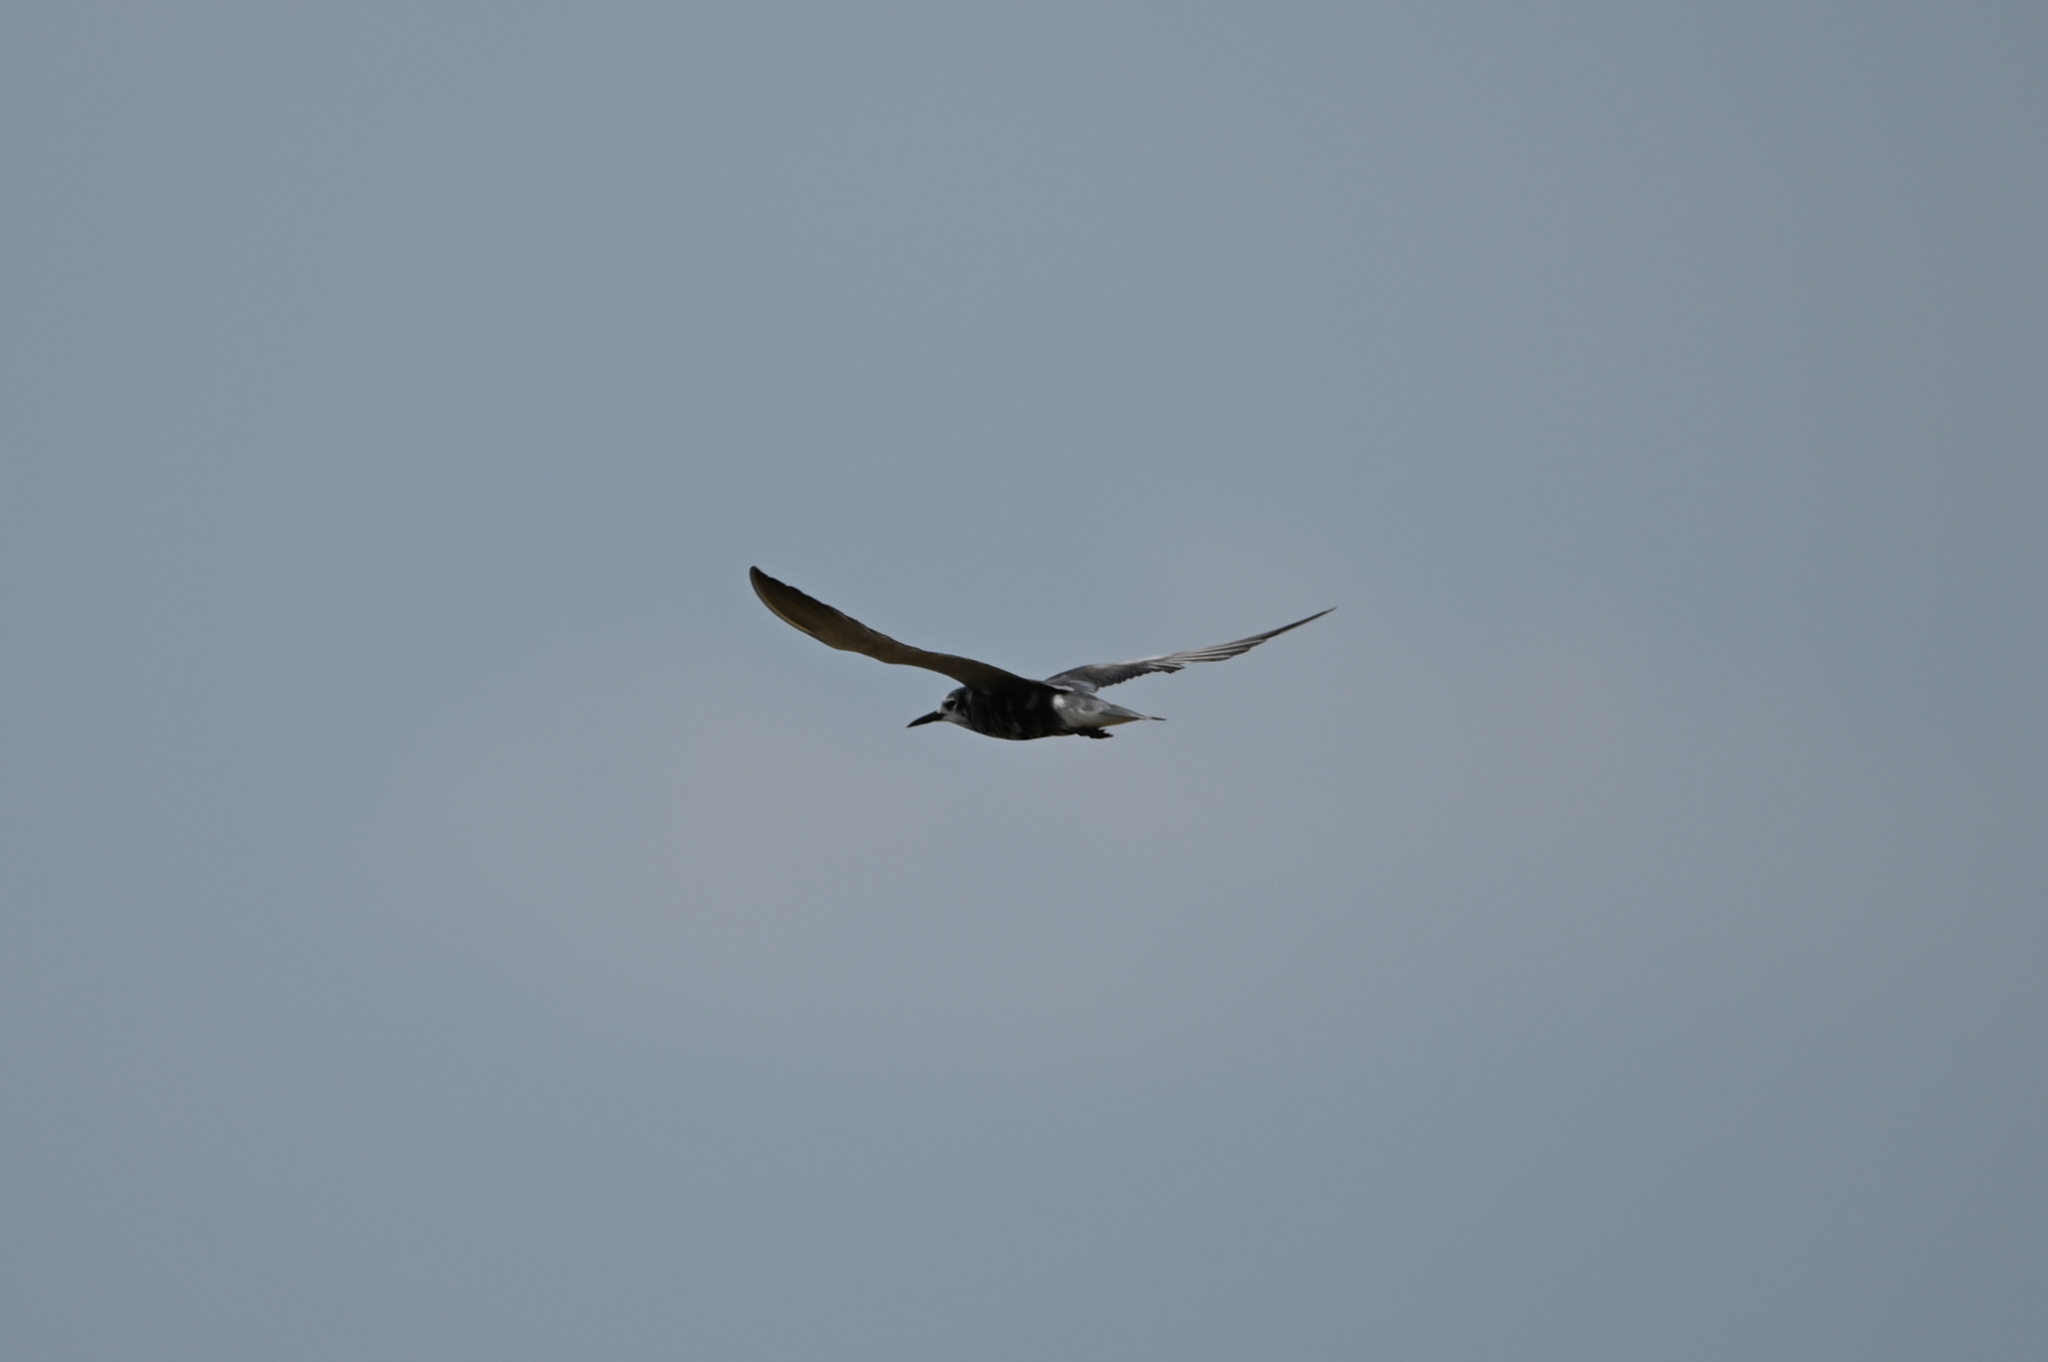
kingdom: Animalia
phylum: Chordata
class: Aves
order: Charadriiformes
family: Laridae
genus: Chlidonias
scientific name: Chlidonias niger
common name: Black tern
